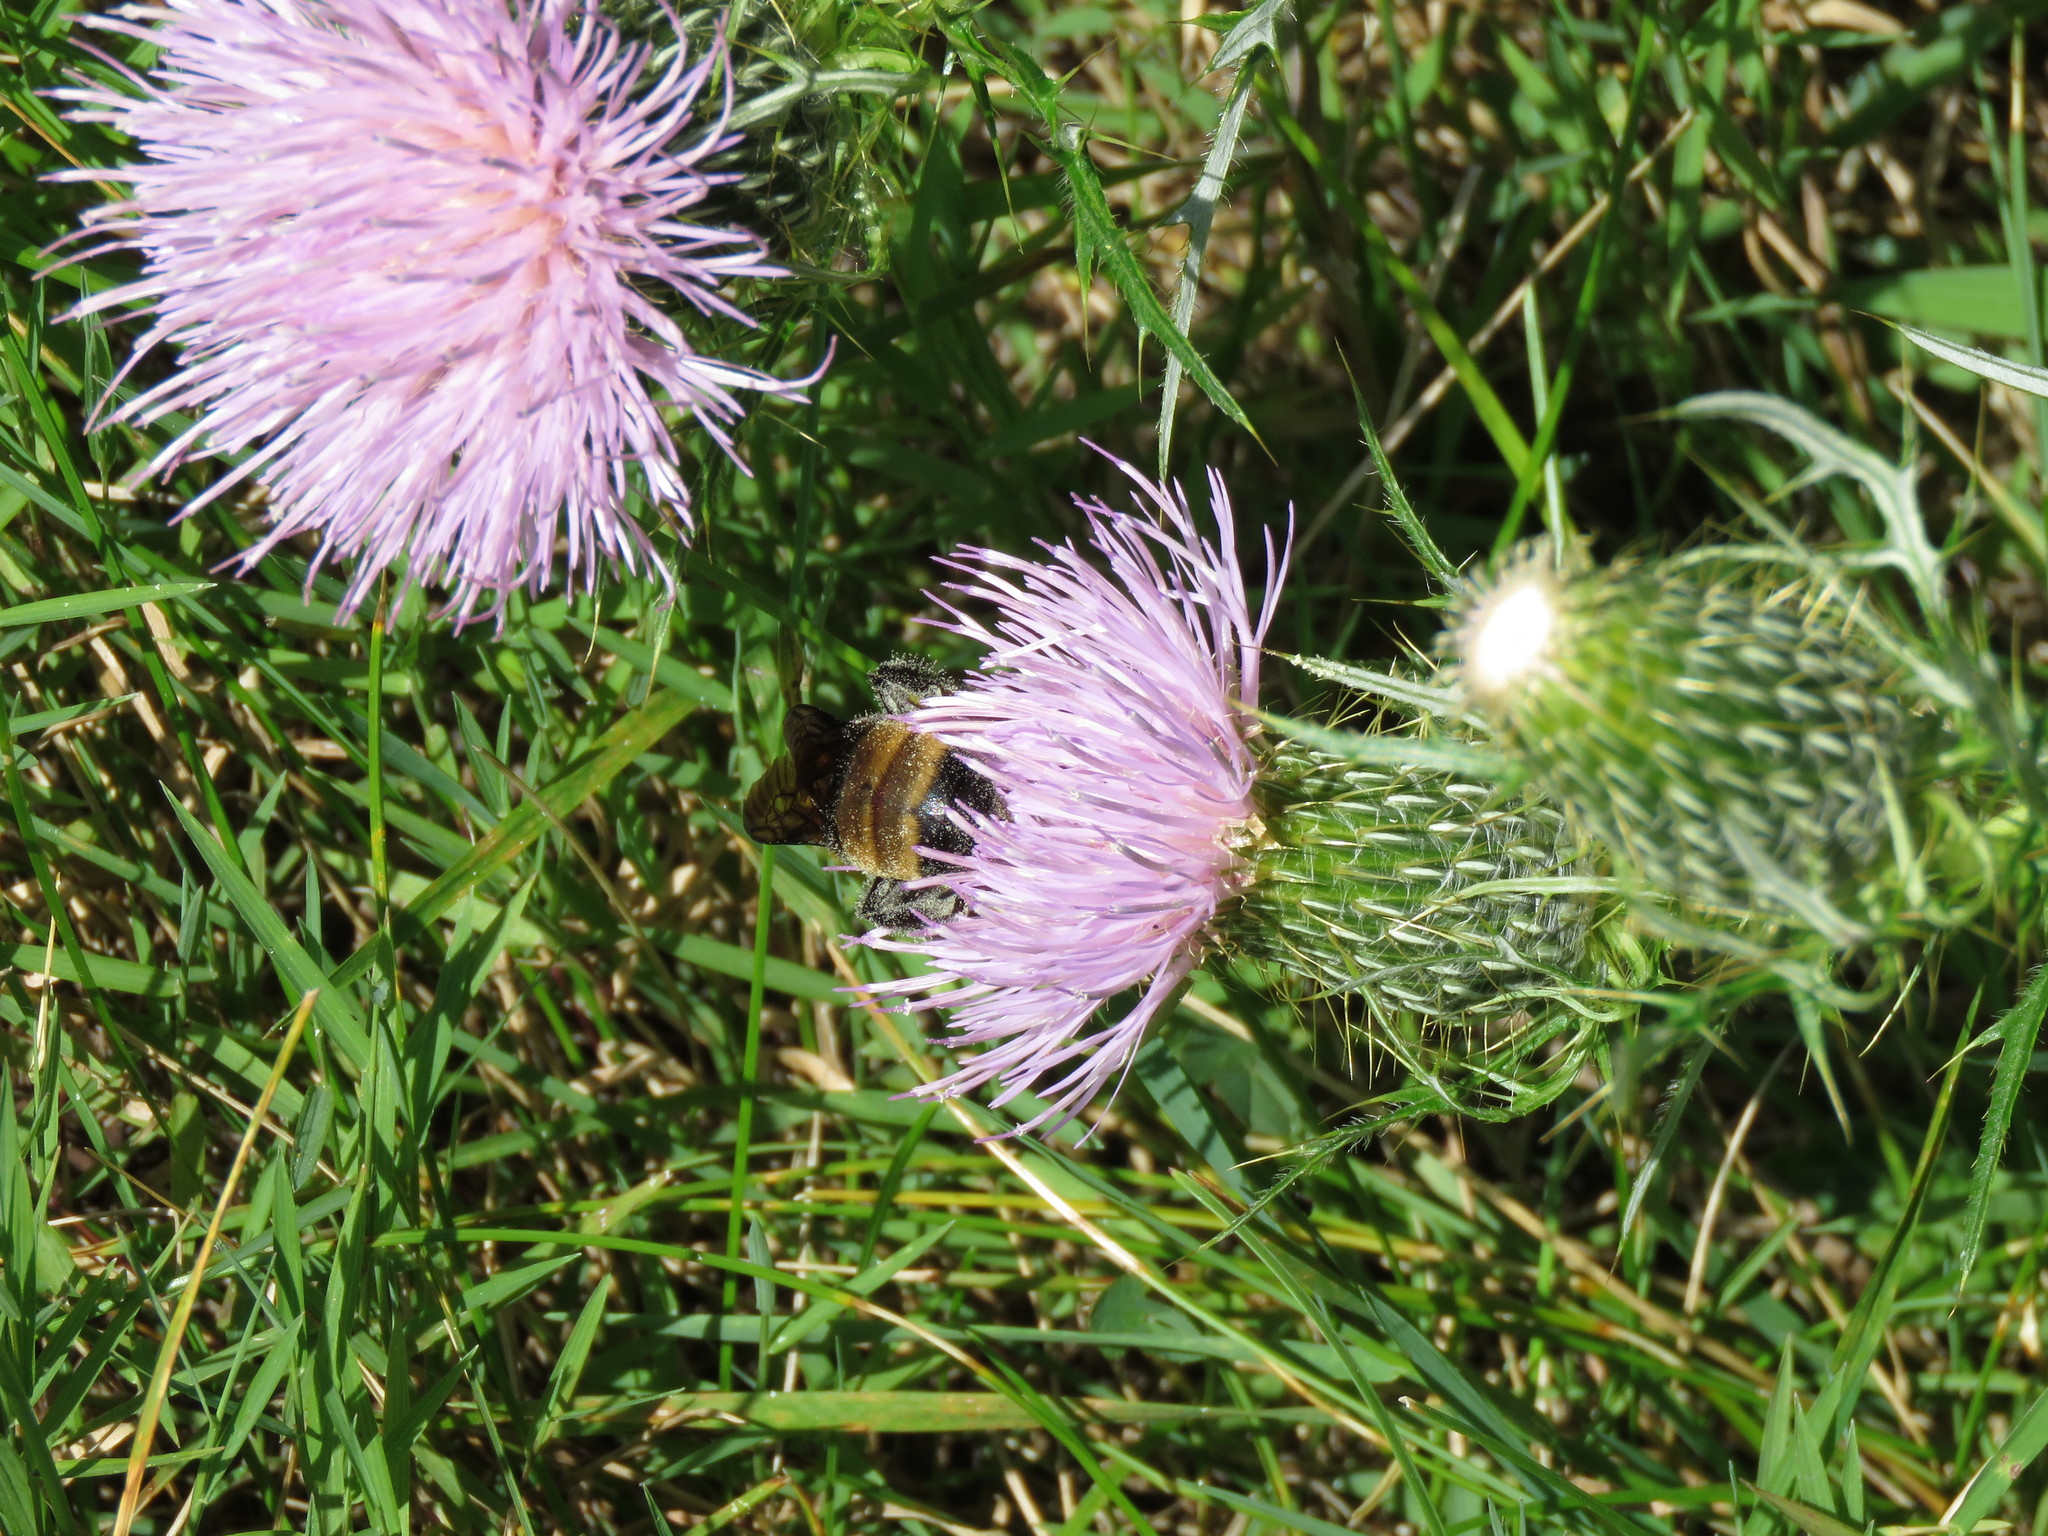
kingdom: Animalia
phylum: Arthropoda
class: Insecta
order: Hymenoptera
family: Apidae
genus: Bombus
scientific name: Bombus auricomus
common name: Black and gold bumble bee
